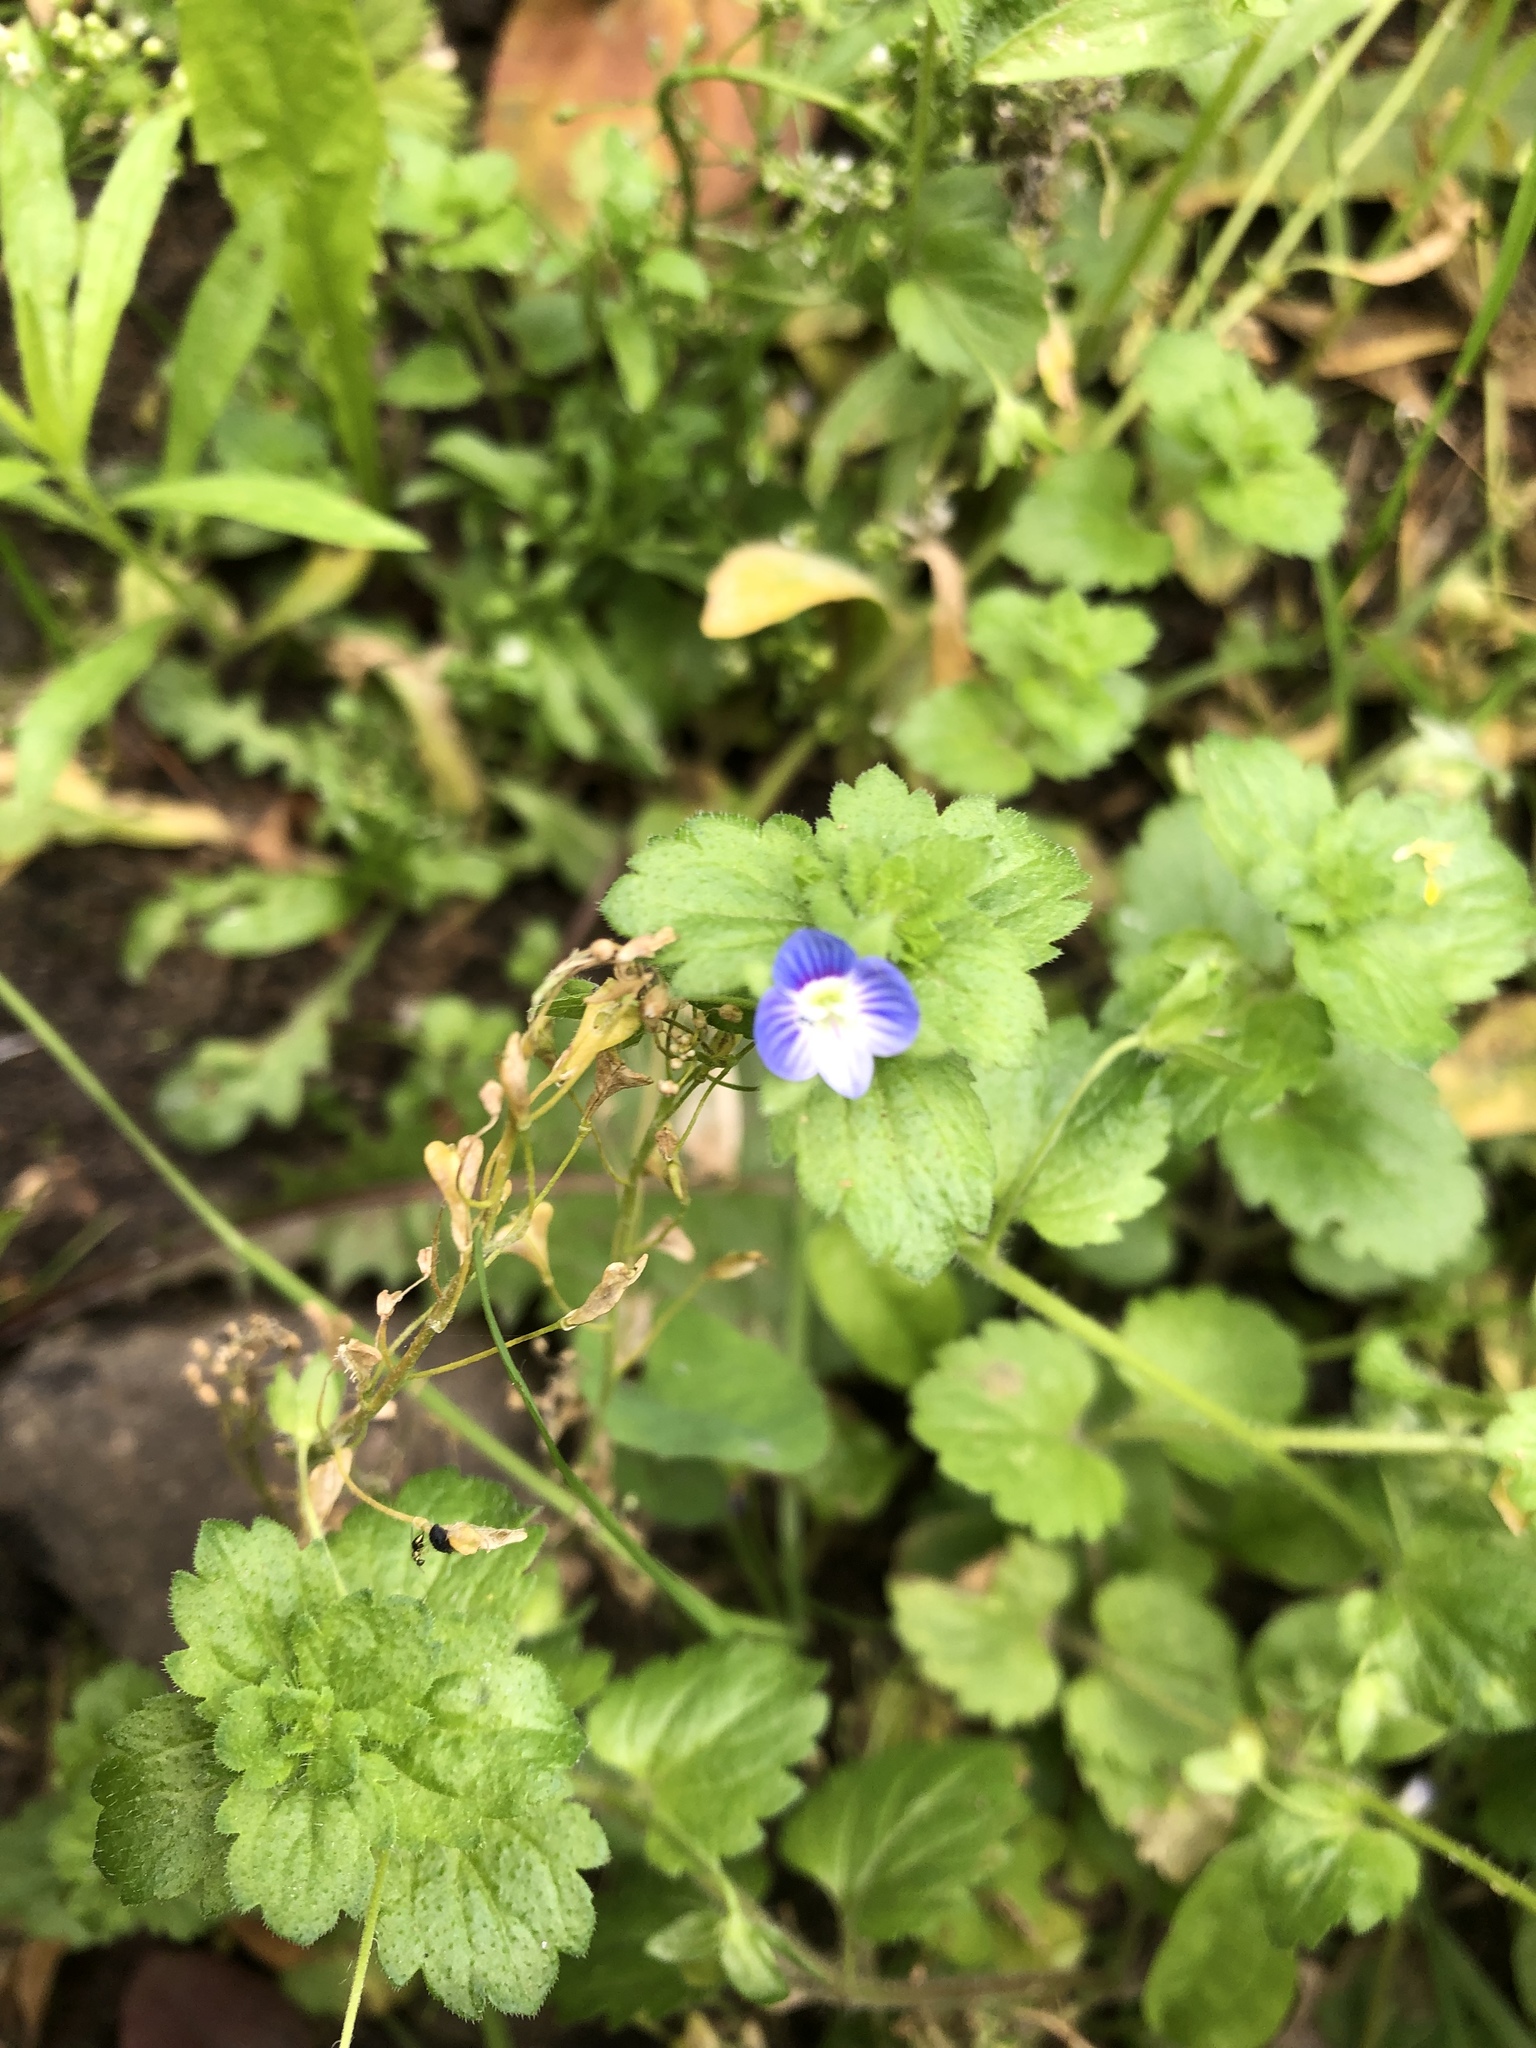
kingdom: Plantae
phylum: Tracheophyta
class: Magnoliopsida
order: Lamiales
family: Plantaginaceae
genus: Veronica
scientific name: Veronica persica
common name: Common field-speedwell
